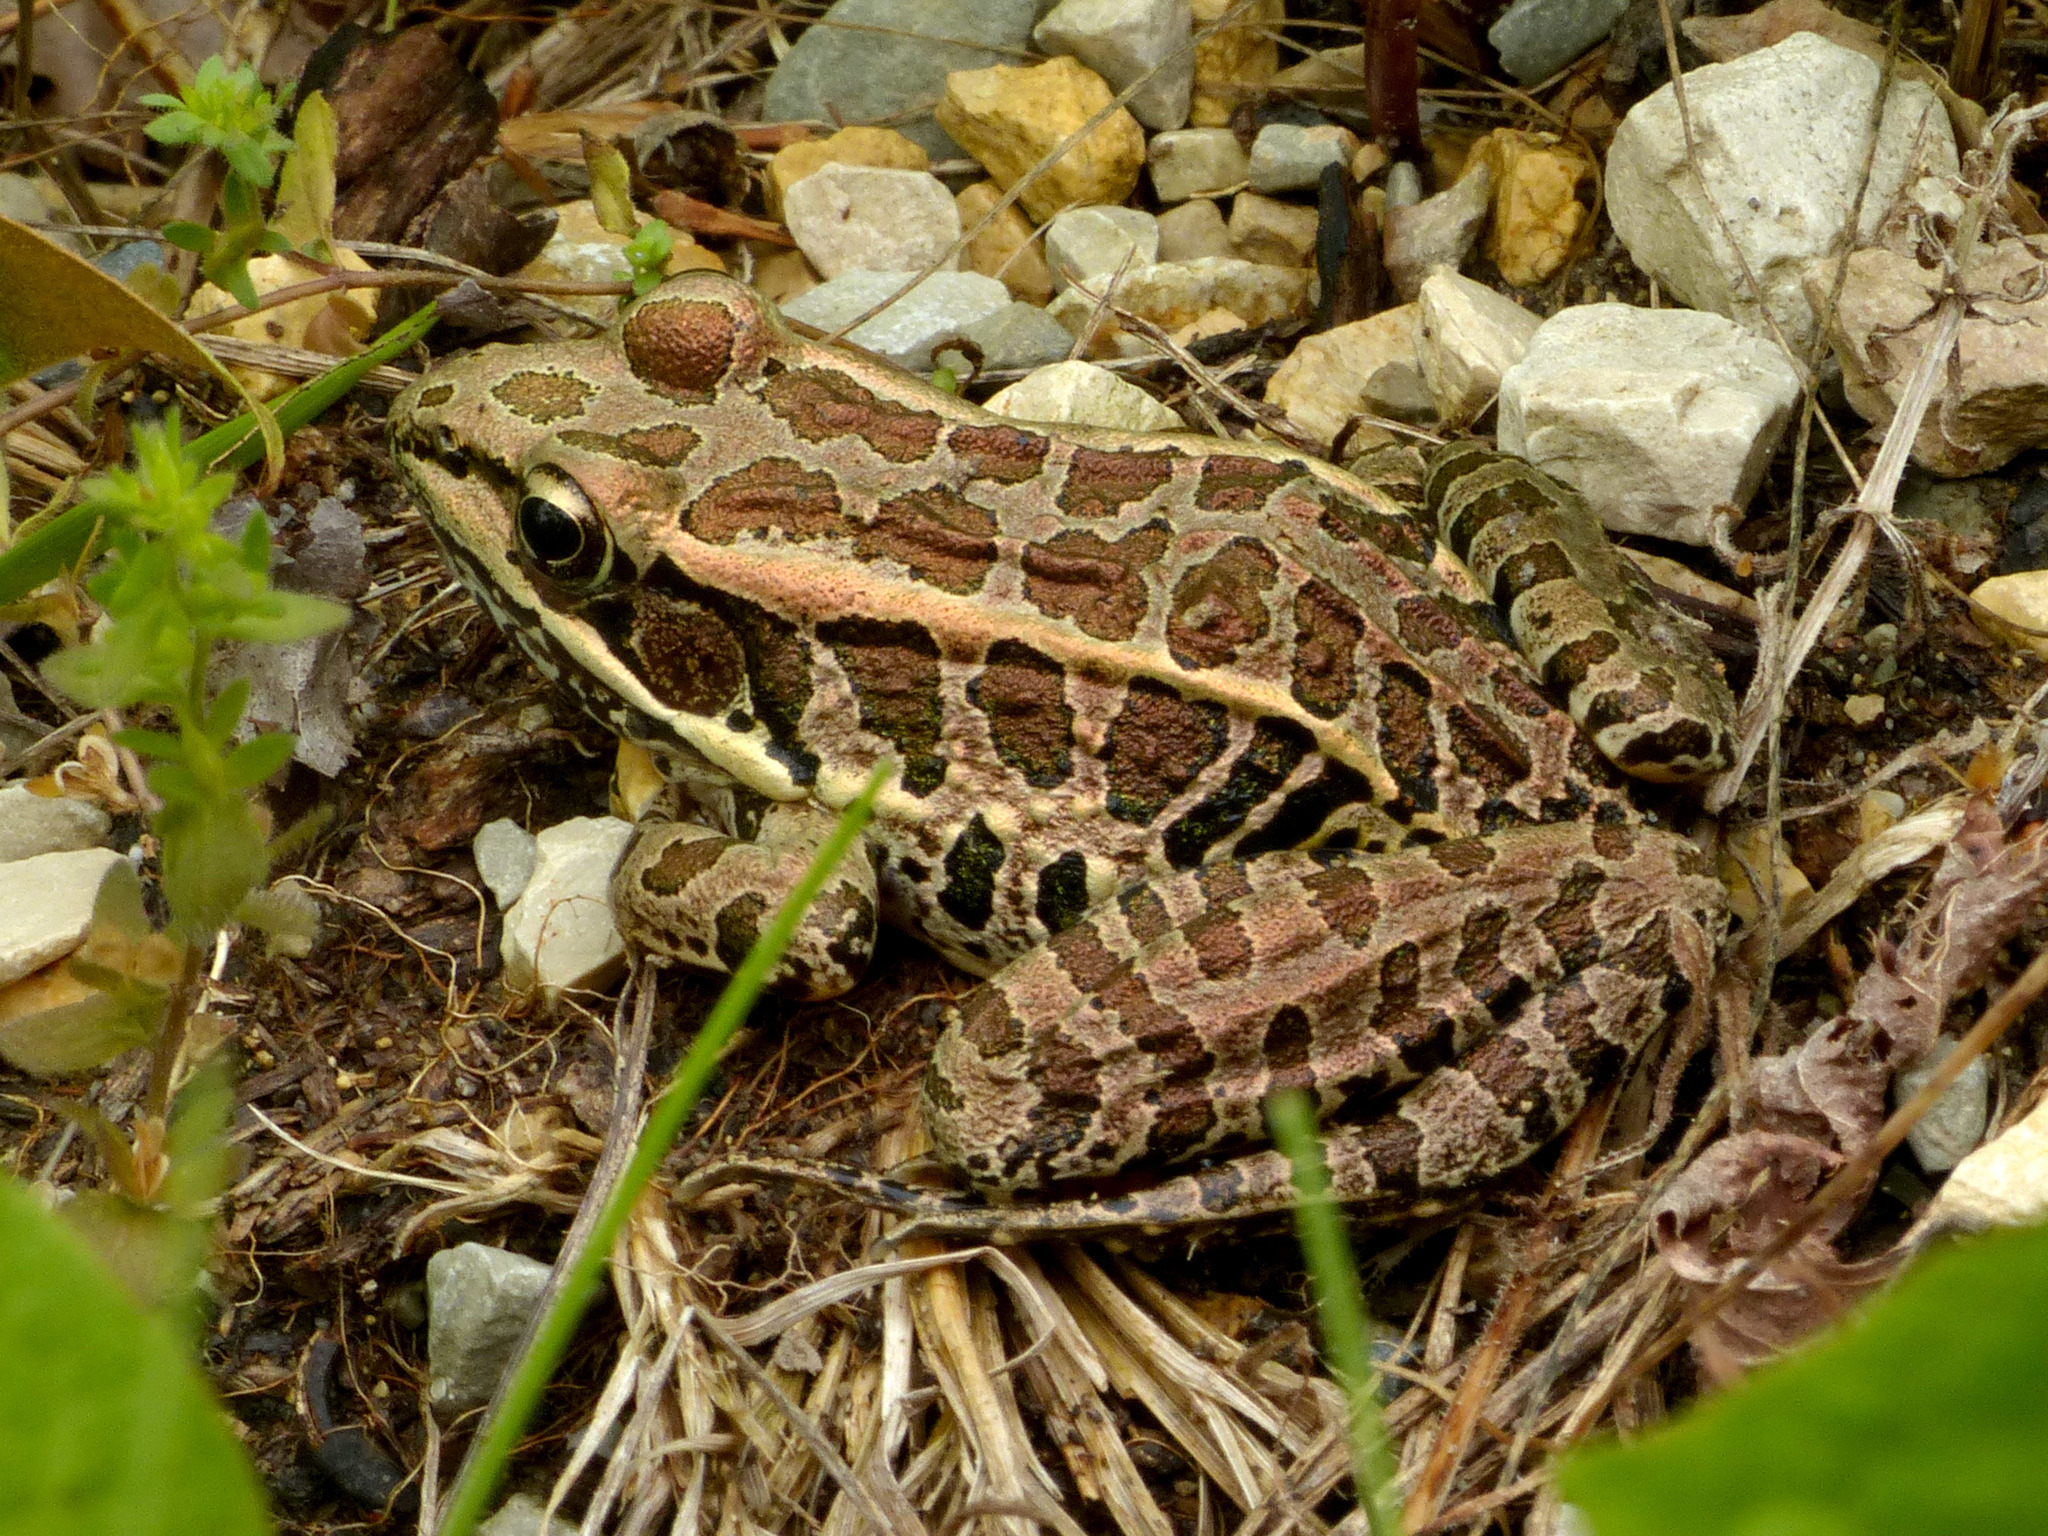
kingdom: Animalia
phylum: Chordata
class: Amphibia
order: Anura
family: Ranidae
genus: Lithobates
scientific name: Lithobates palustris
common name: Pickerel frog
